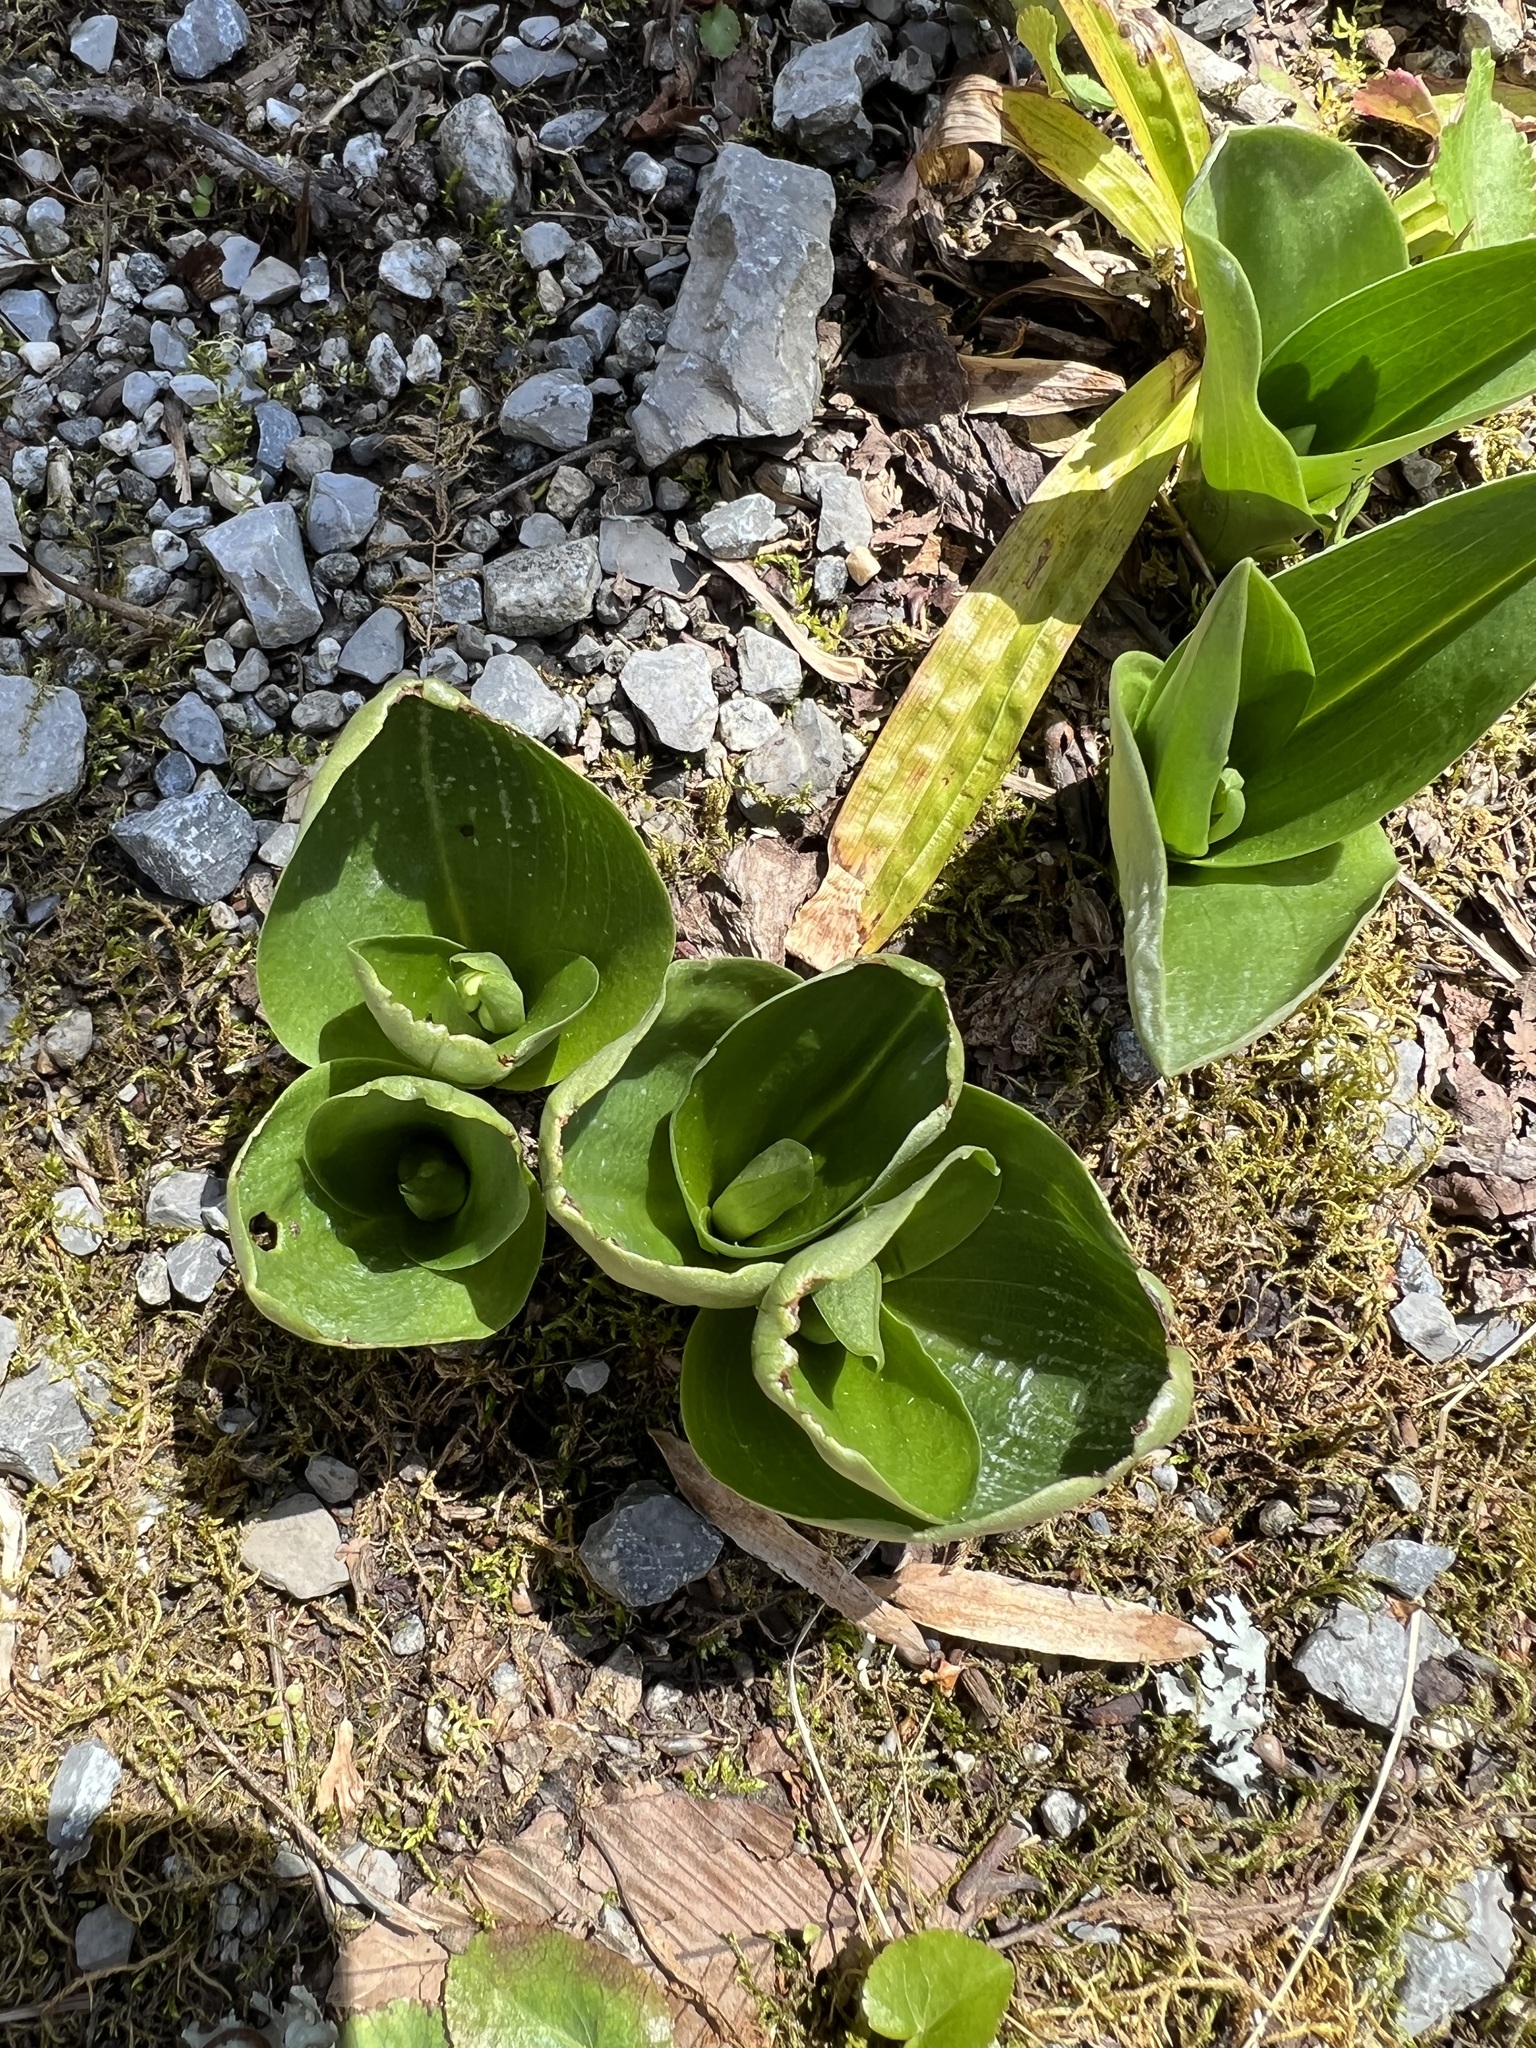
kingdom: Plantae
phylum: Tracheophyta
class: Liliopsida
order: Asparagales
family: Orchidaceae
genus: Galearis
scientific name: Galearis spectabilis
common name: Purple-hooded orchis
